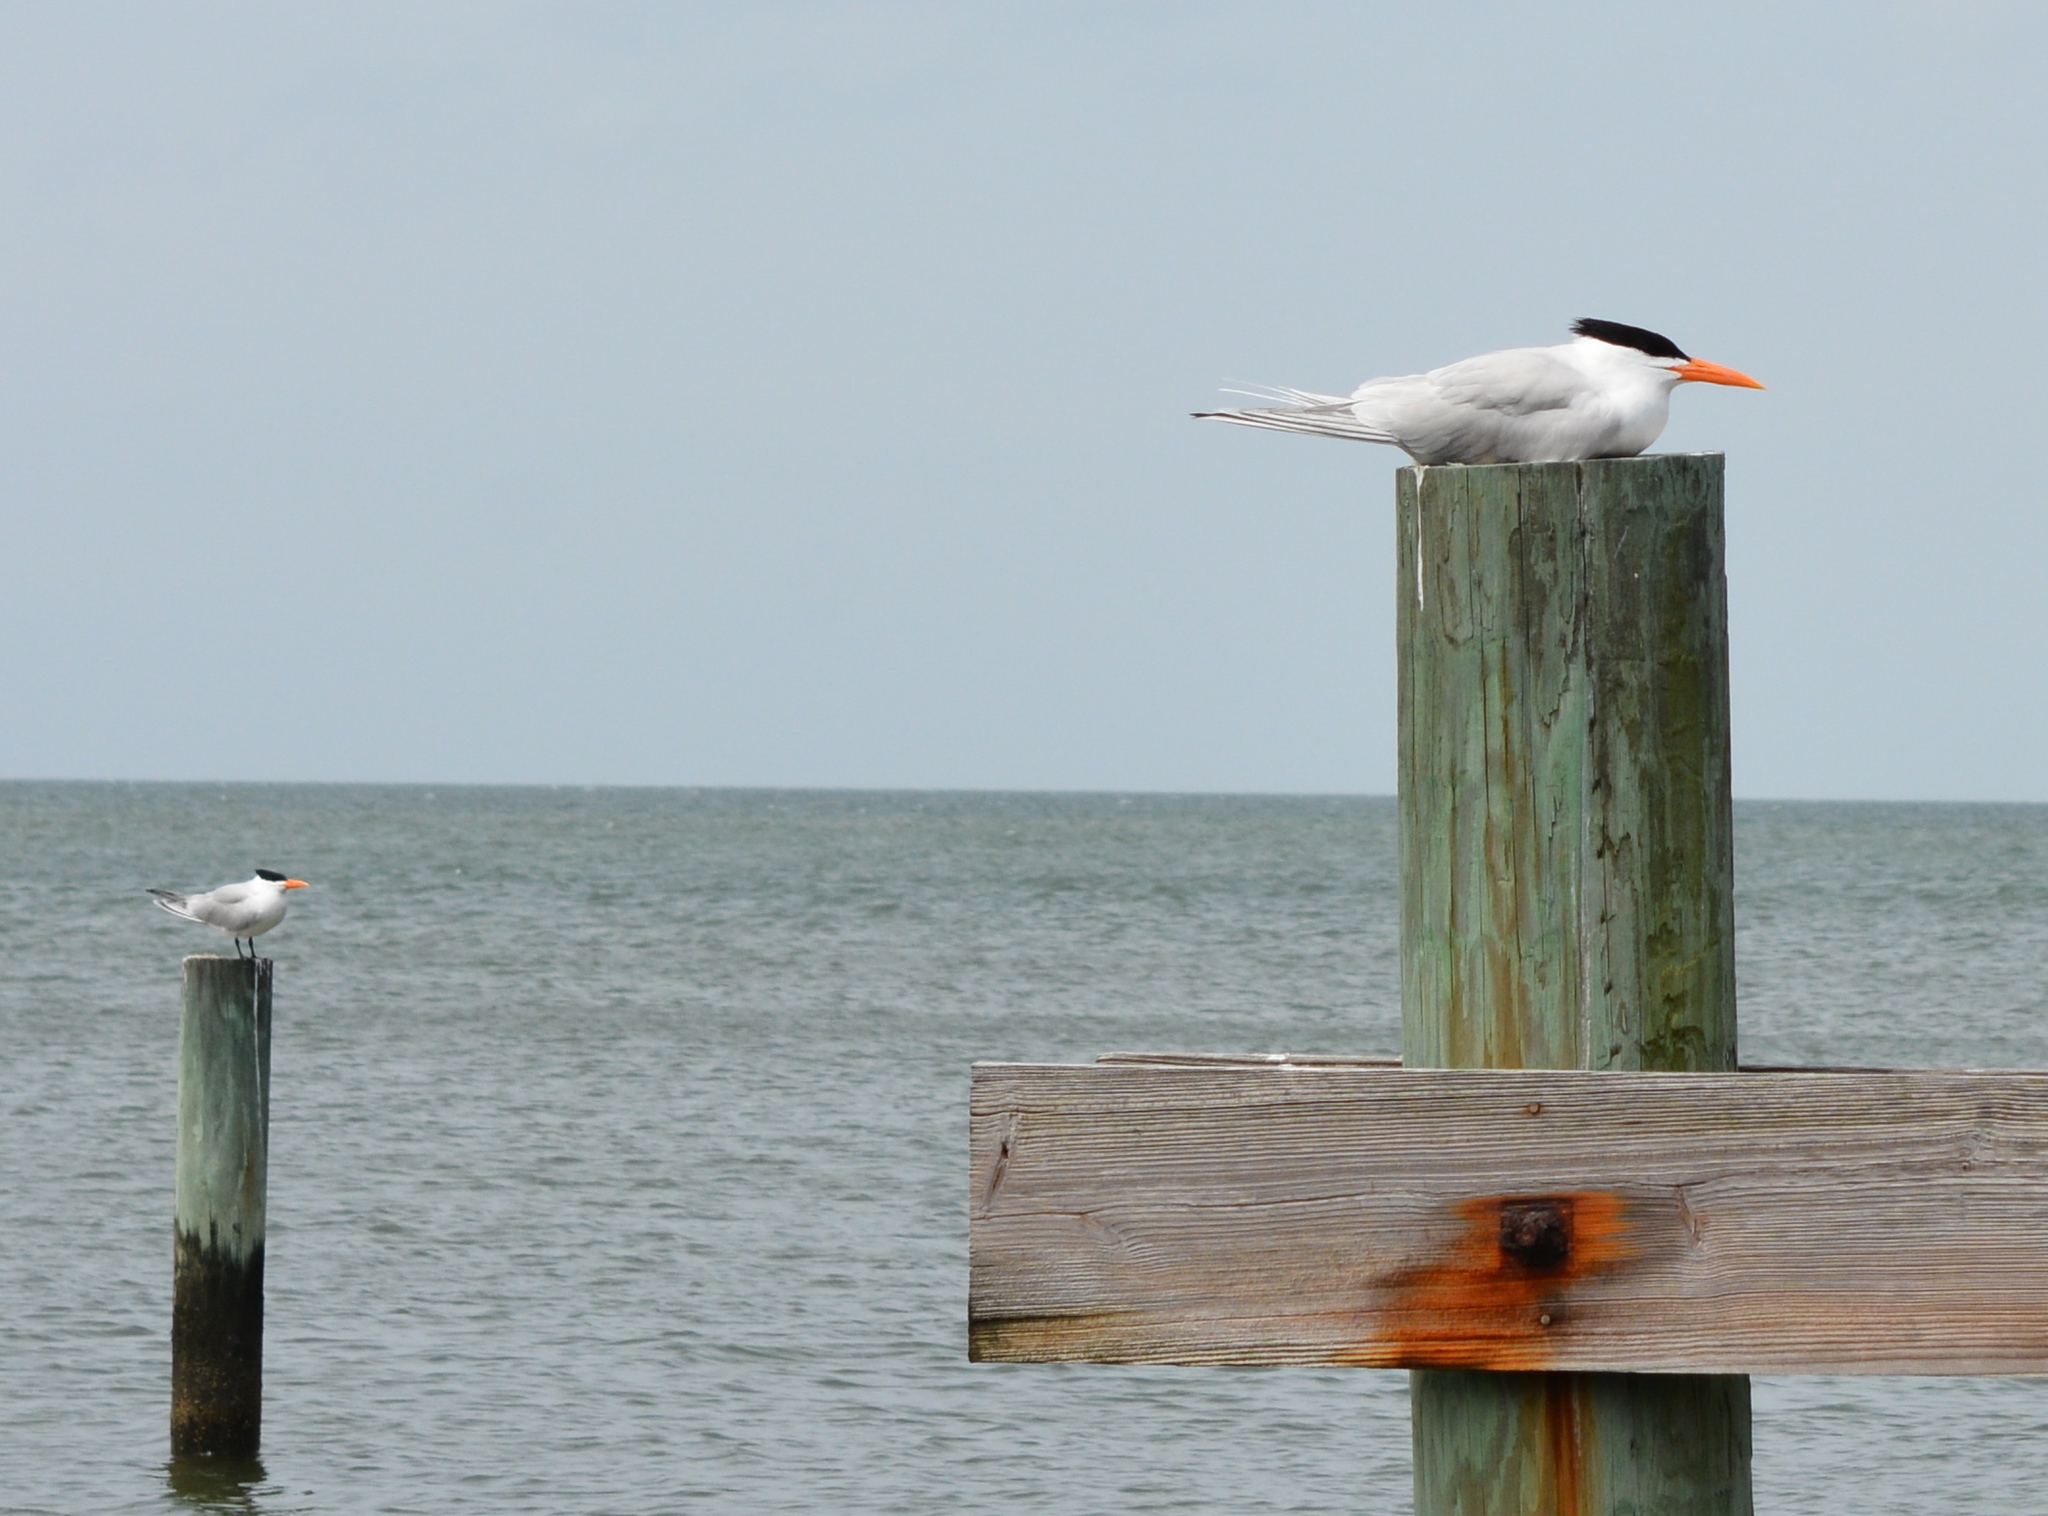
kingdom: Animalia
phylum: Chordata
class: Aves
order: Charadriiformes
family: Laridae
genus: Thalasseus
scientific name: Thalasseus maximus
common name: Royal tern
